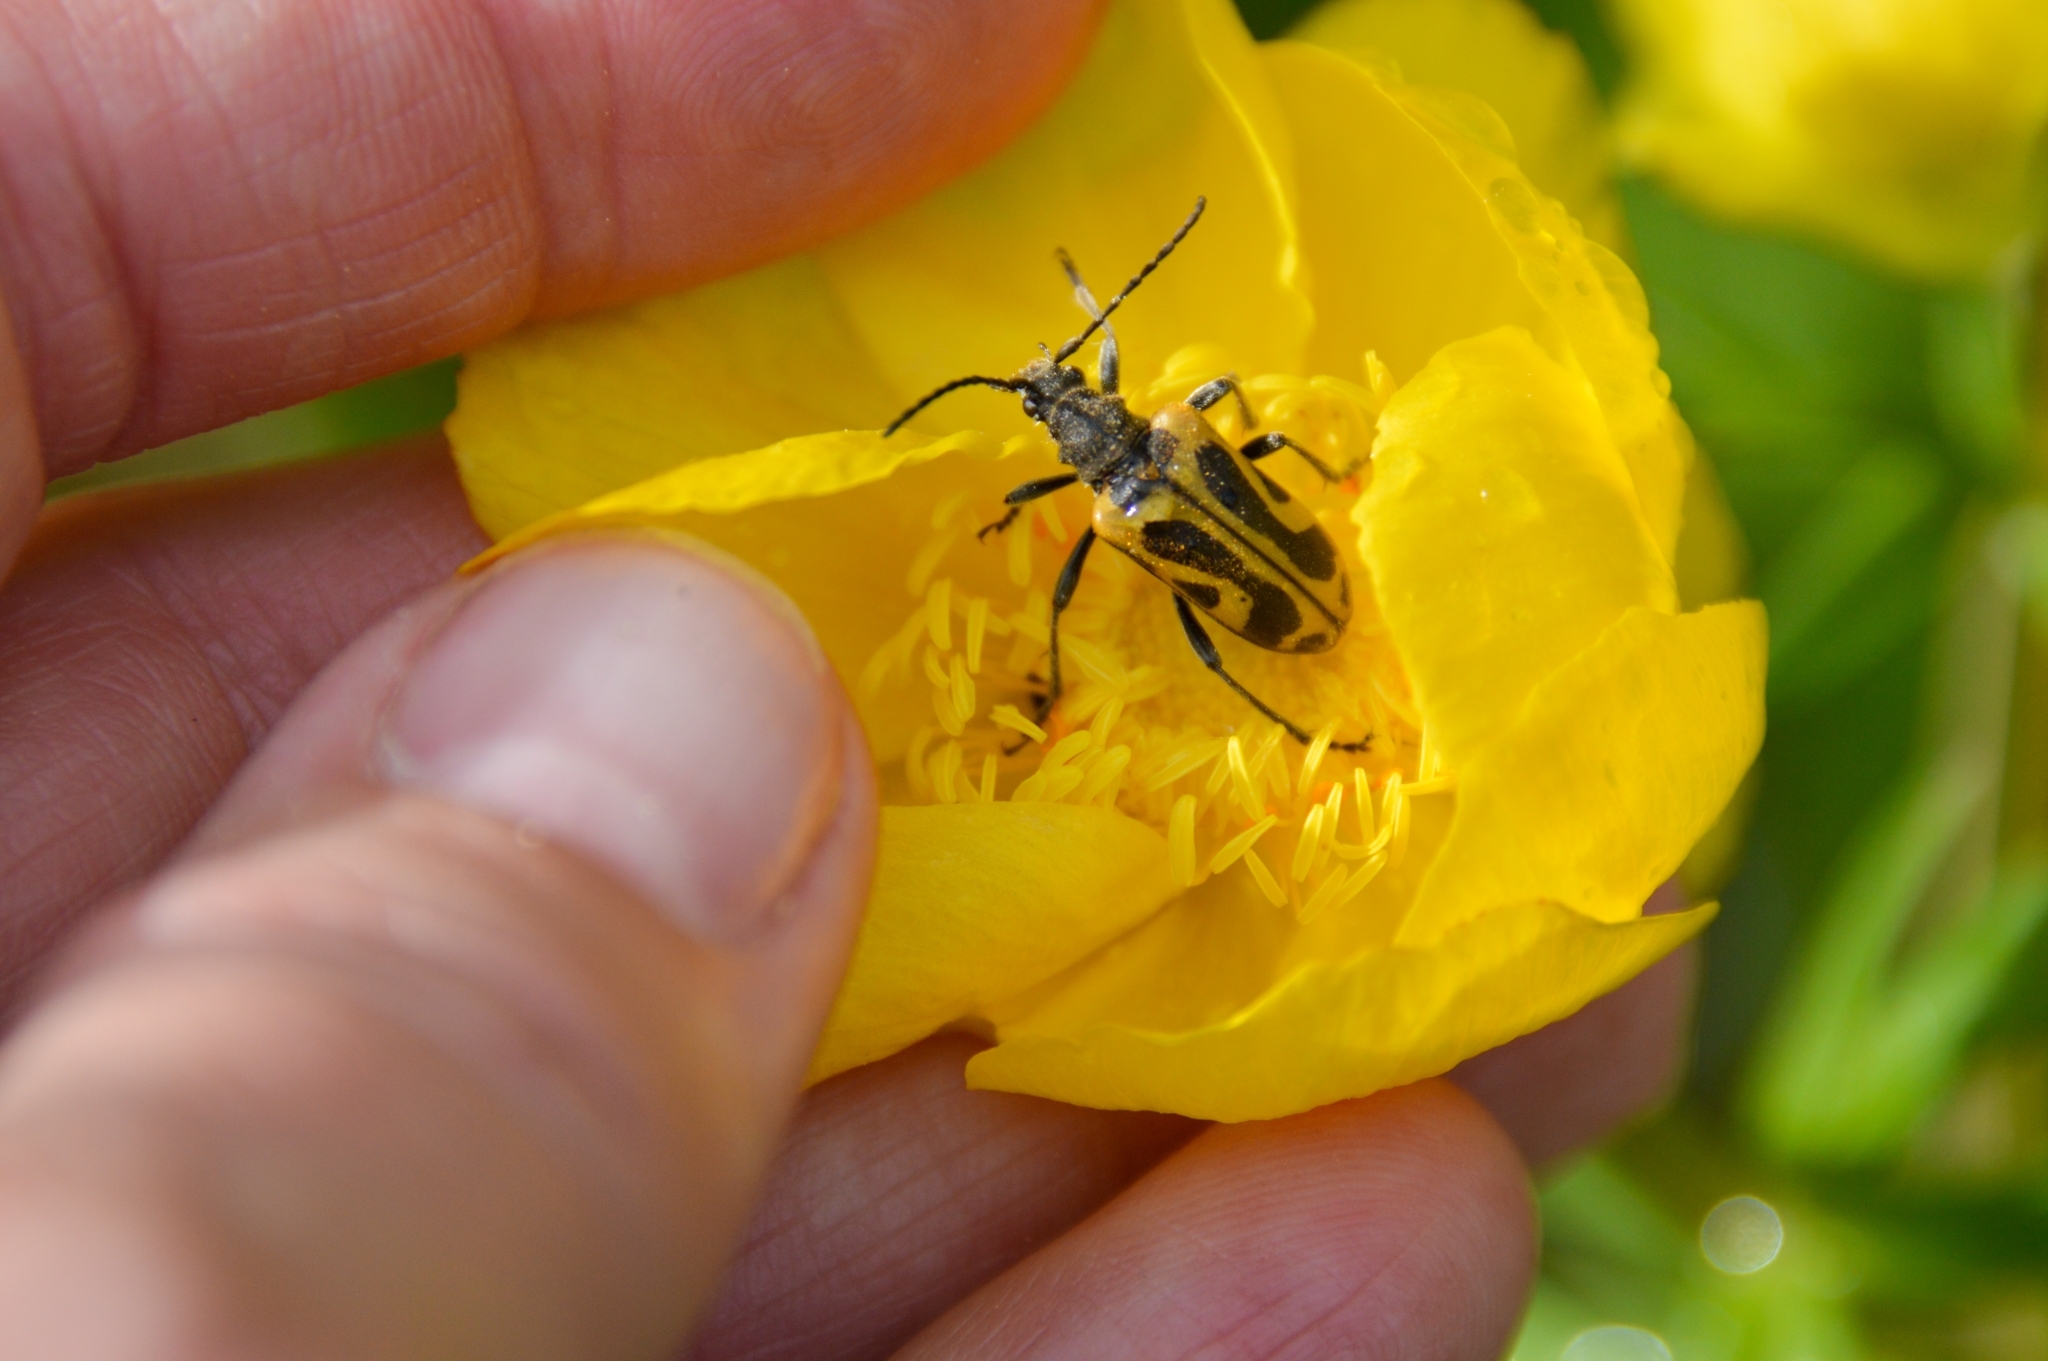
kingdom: Animalia
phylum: Arthropoda
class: Insecta
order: Coleoptera
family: Cerambycidae
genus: Brachyta
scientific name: Brachyta interrogationis
